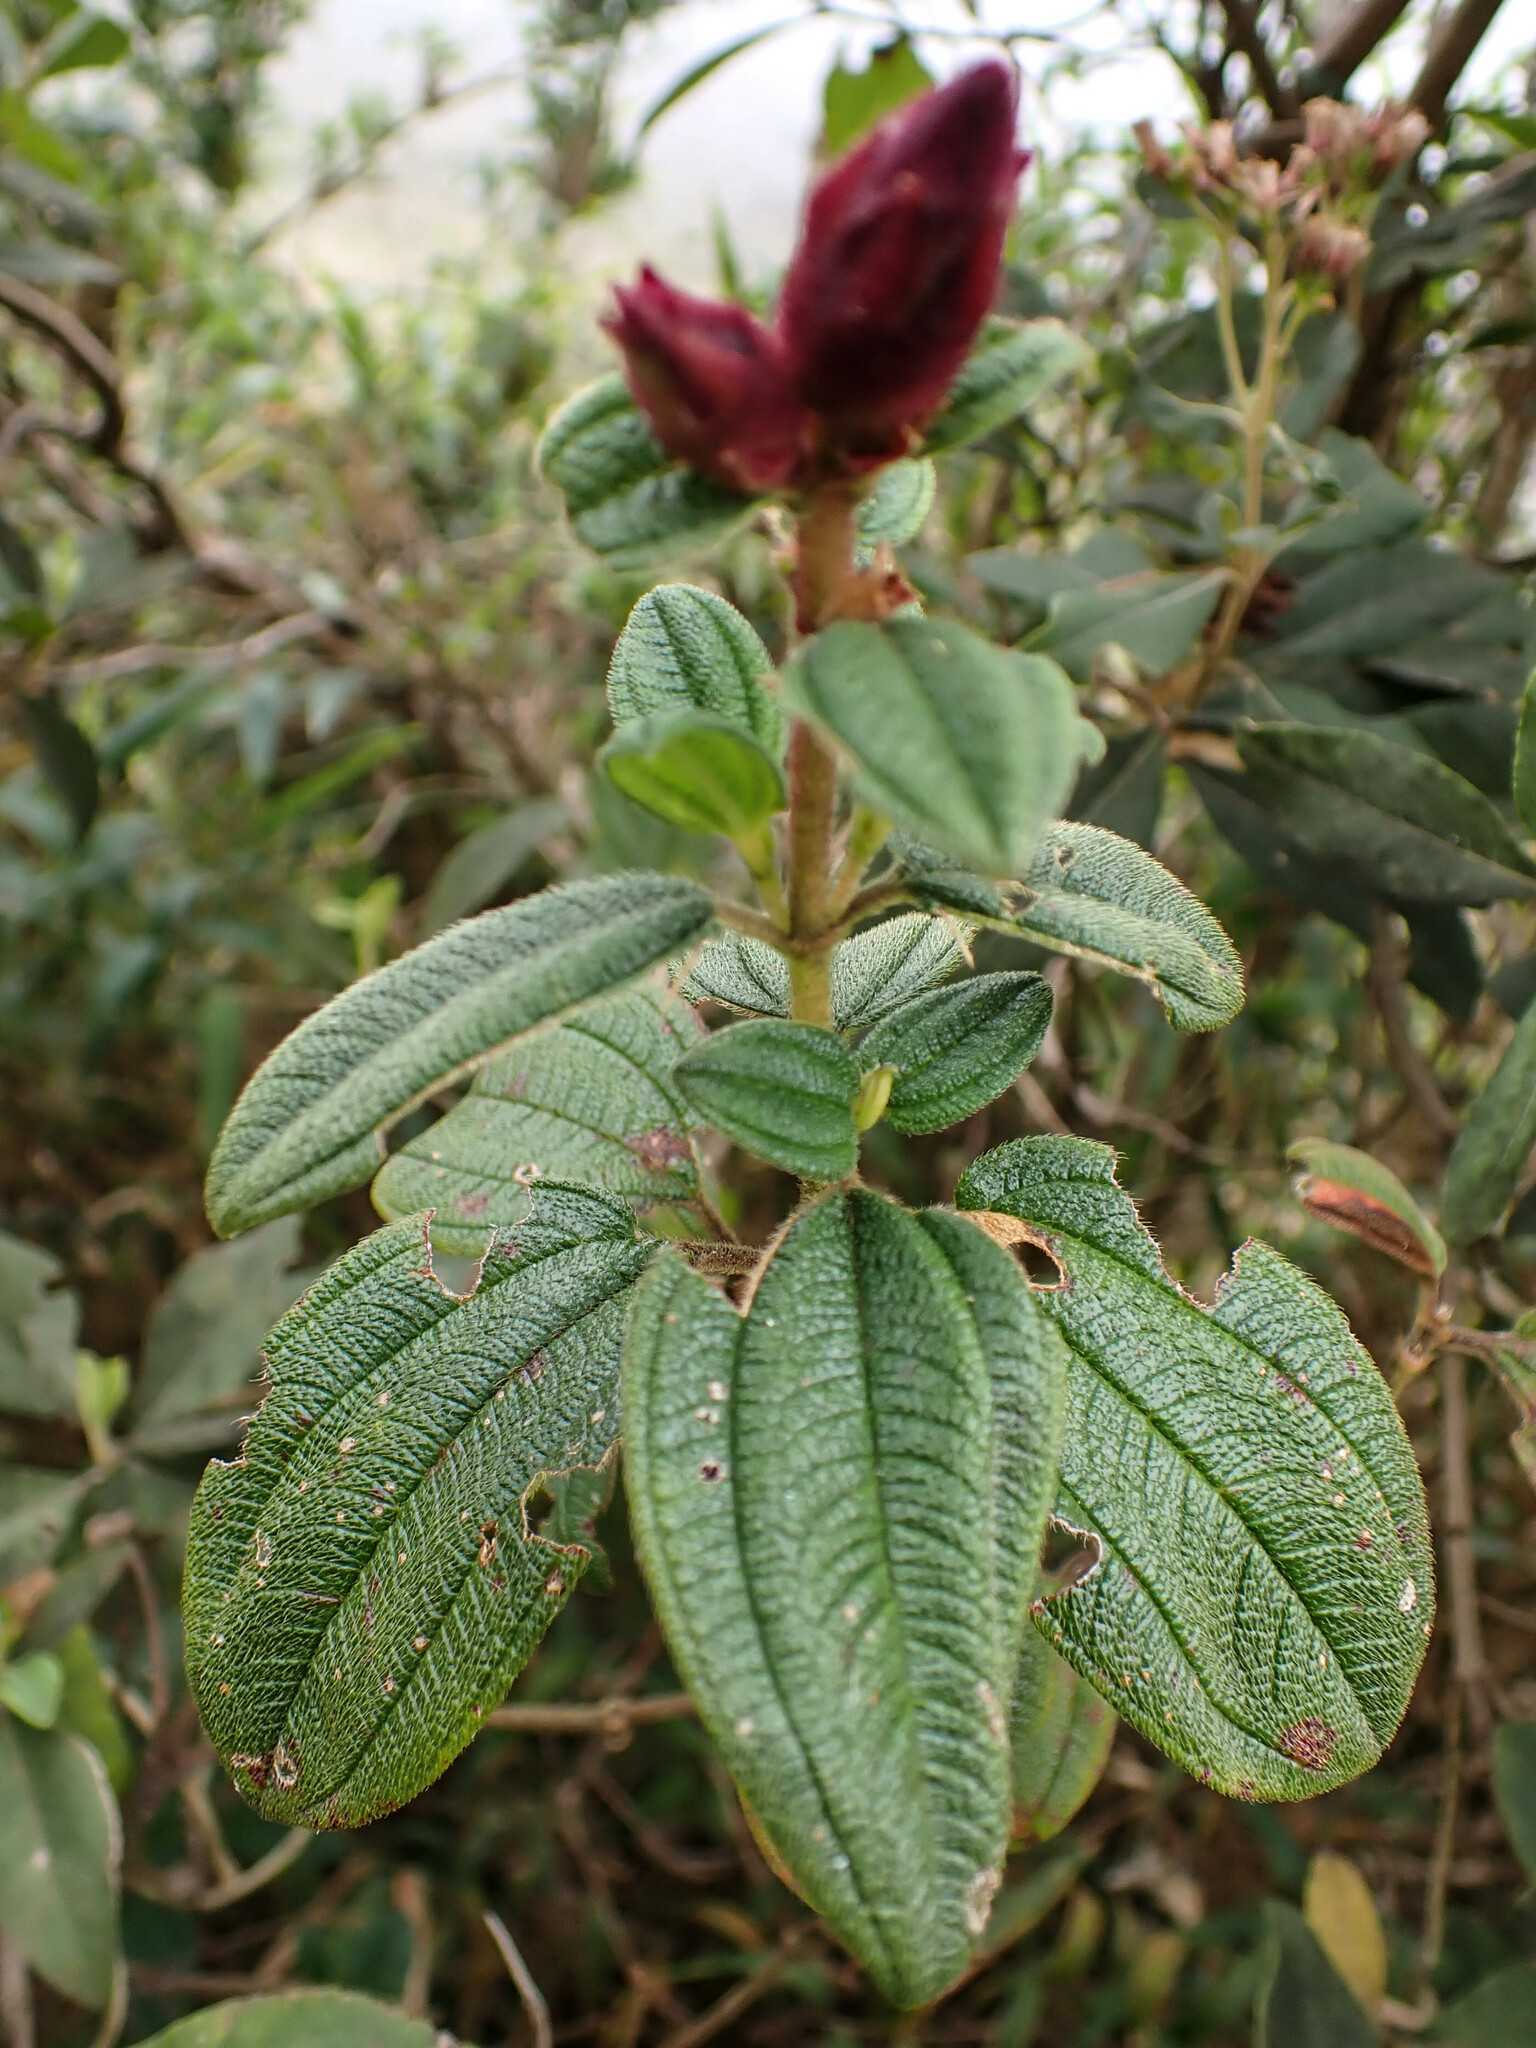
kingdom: Plantae
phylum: Tracheophyta
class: Magnoliopsida
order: Myrtales
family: Melastomataceae
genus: Chaetogastra
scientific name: Chaetogastra grossa
